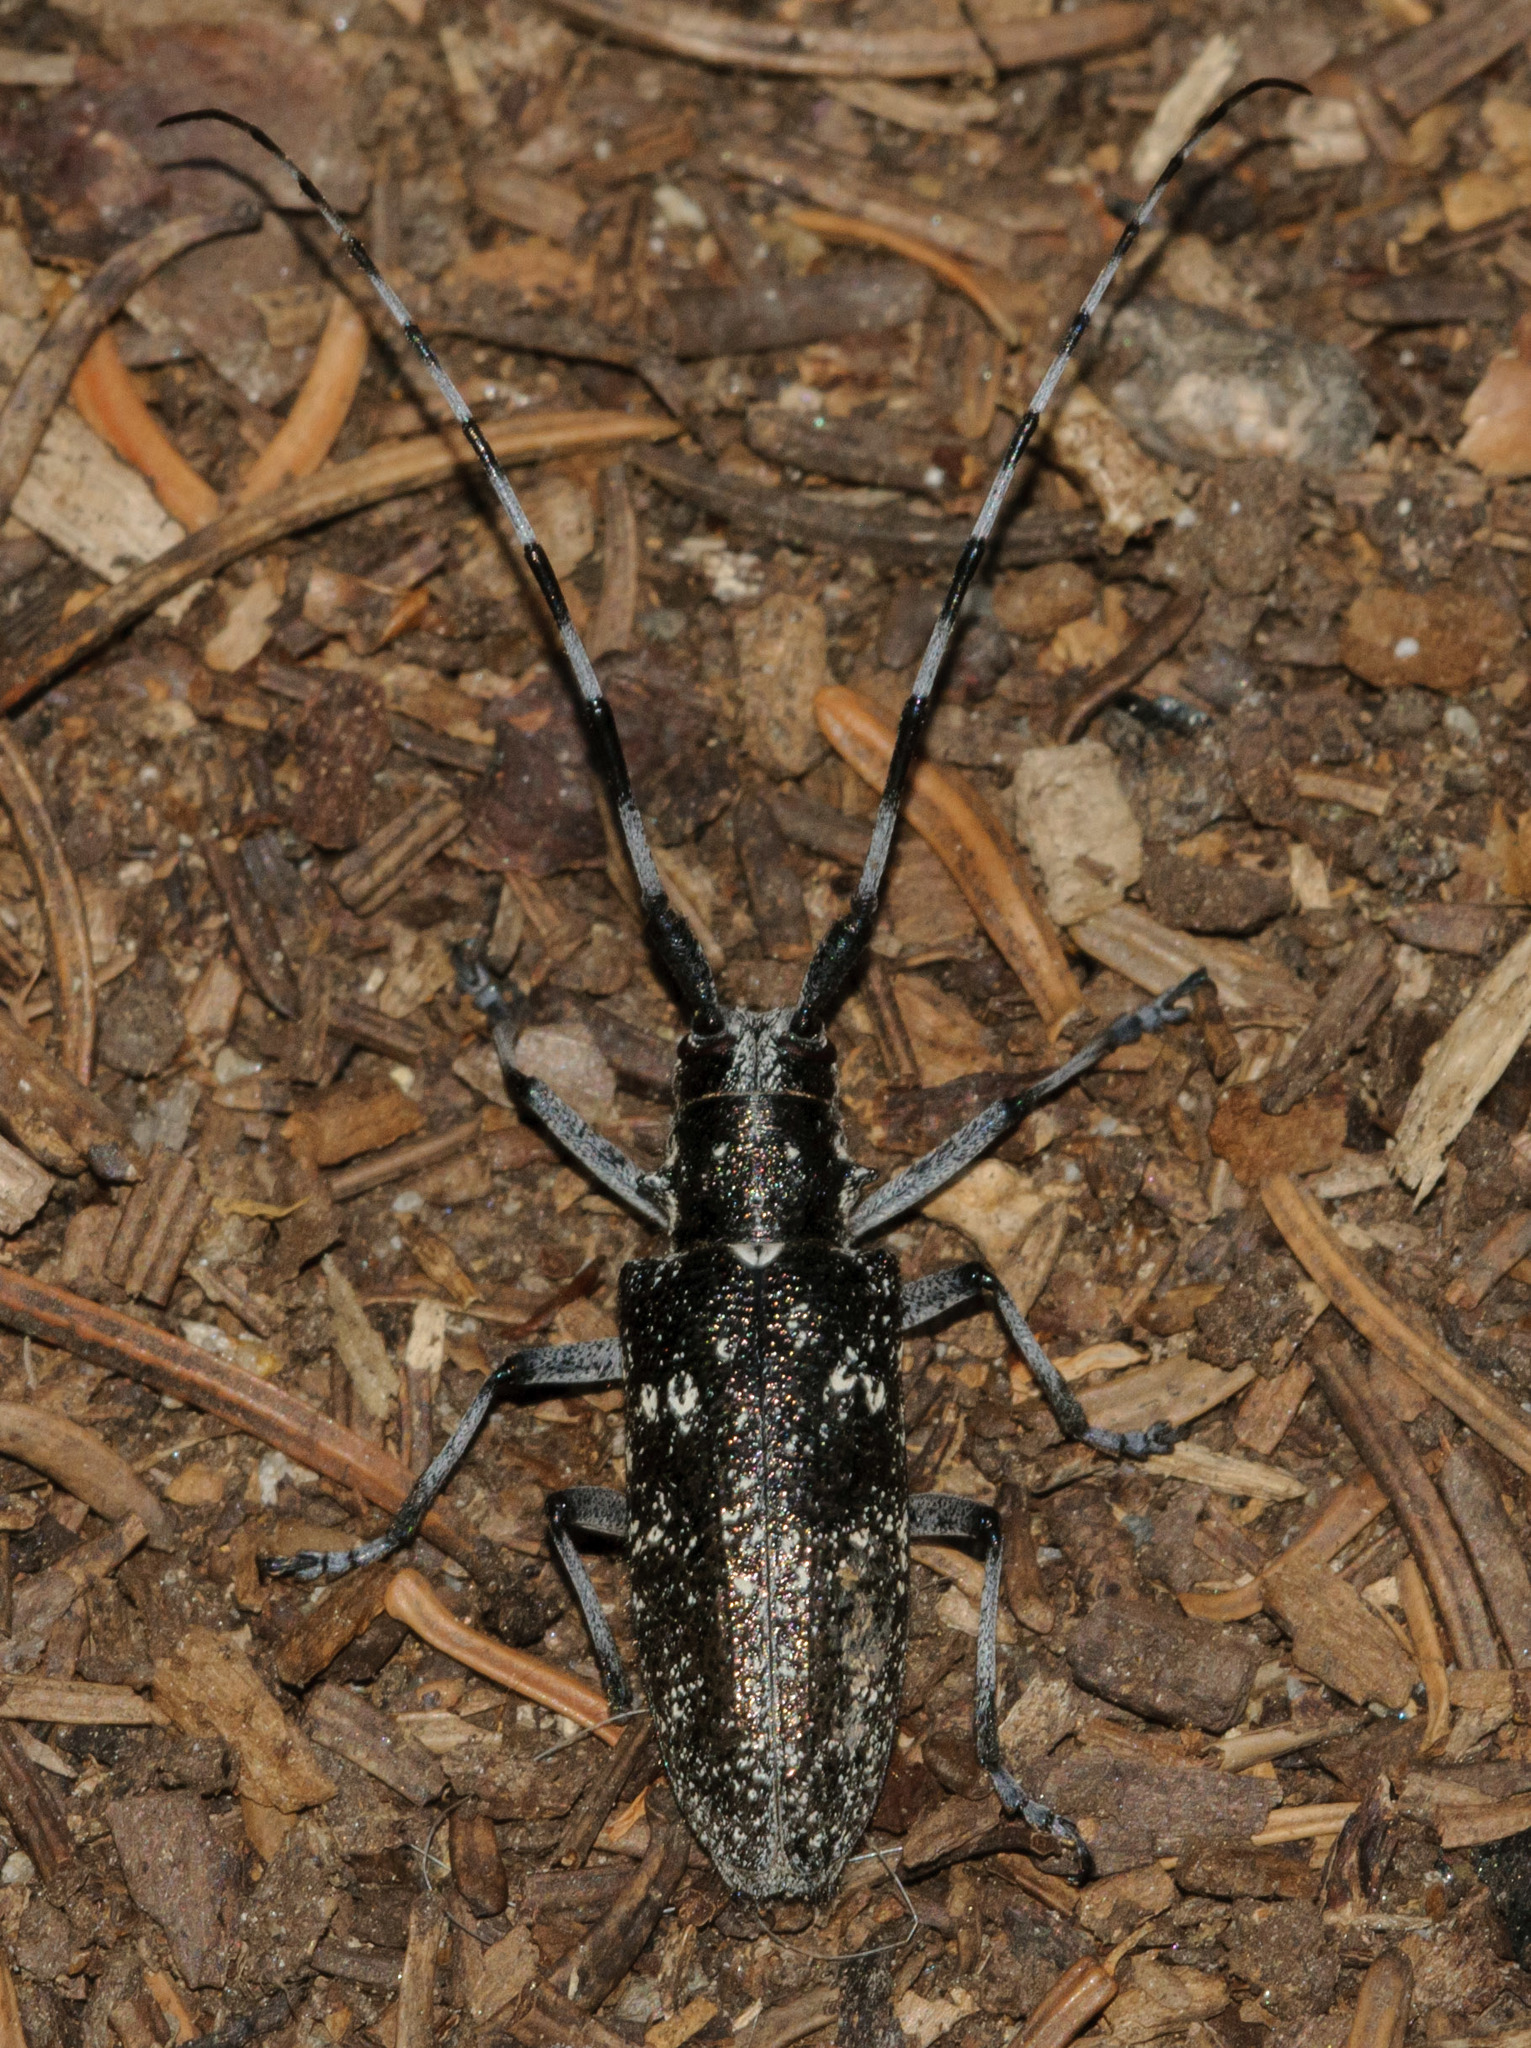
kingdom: Animalia
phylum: Arthropoda
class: Insecta
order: Coleoptera
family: Cerambycidae
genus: Monochamus
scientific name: Monochamus scutellatus
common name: White-spotted sawyer beetle
